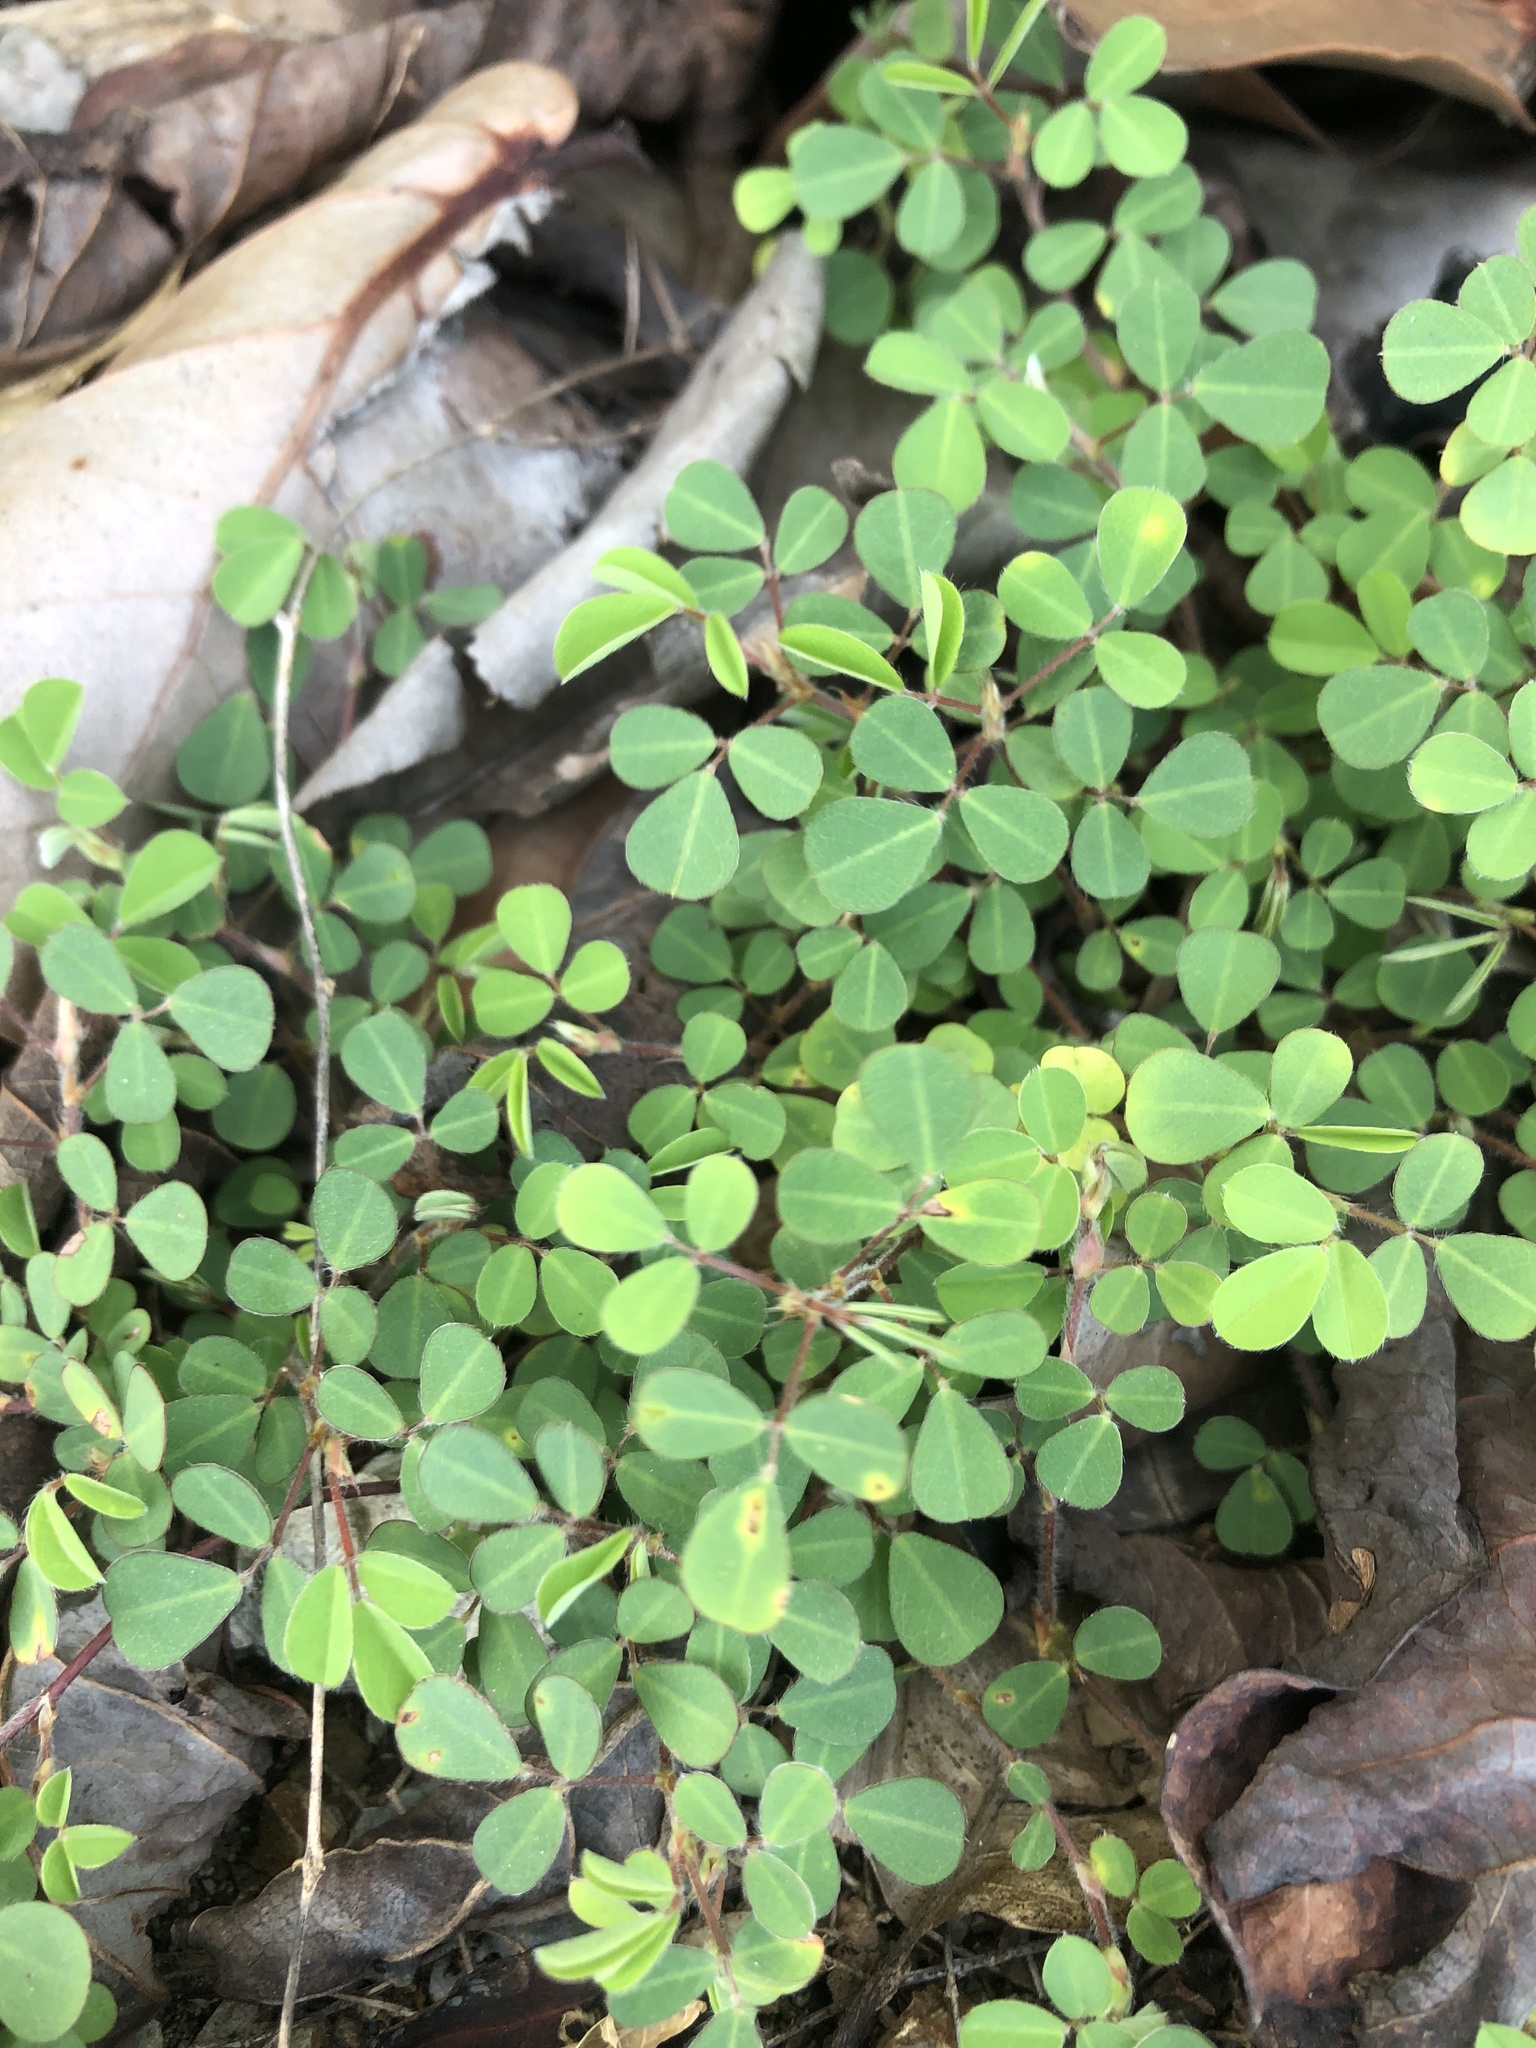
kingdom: Plantae
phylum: Tracheophyta
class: Magnoliopsida
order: Fabales
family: Fabaceae
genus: Grona
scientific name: Grona triflora
